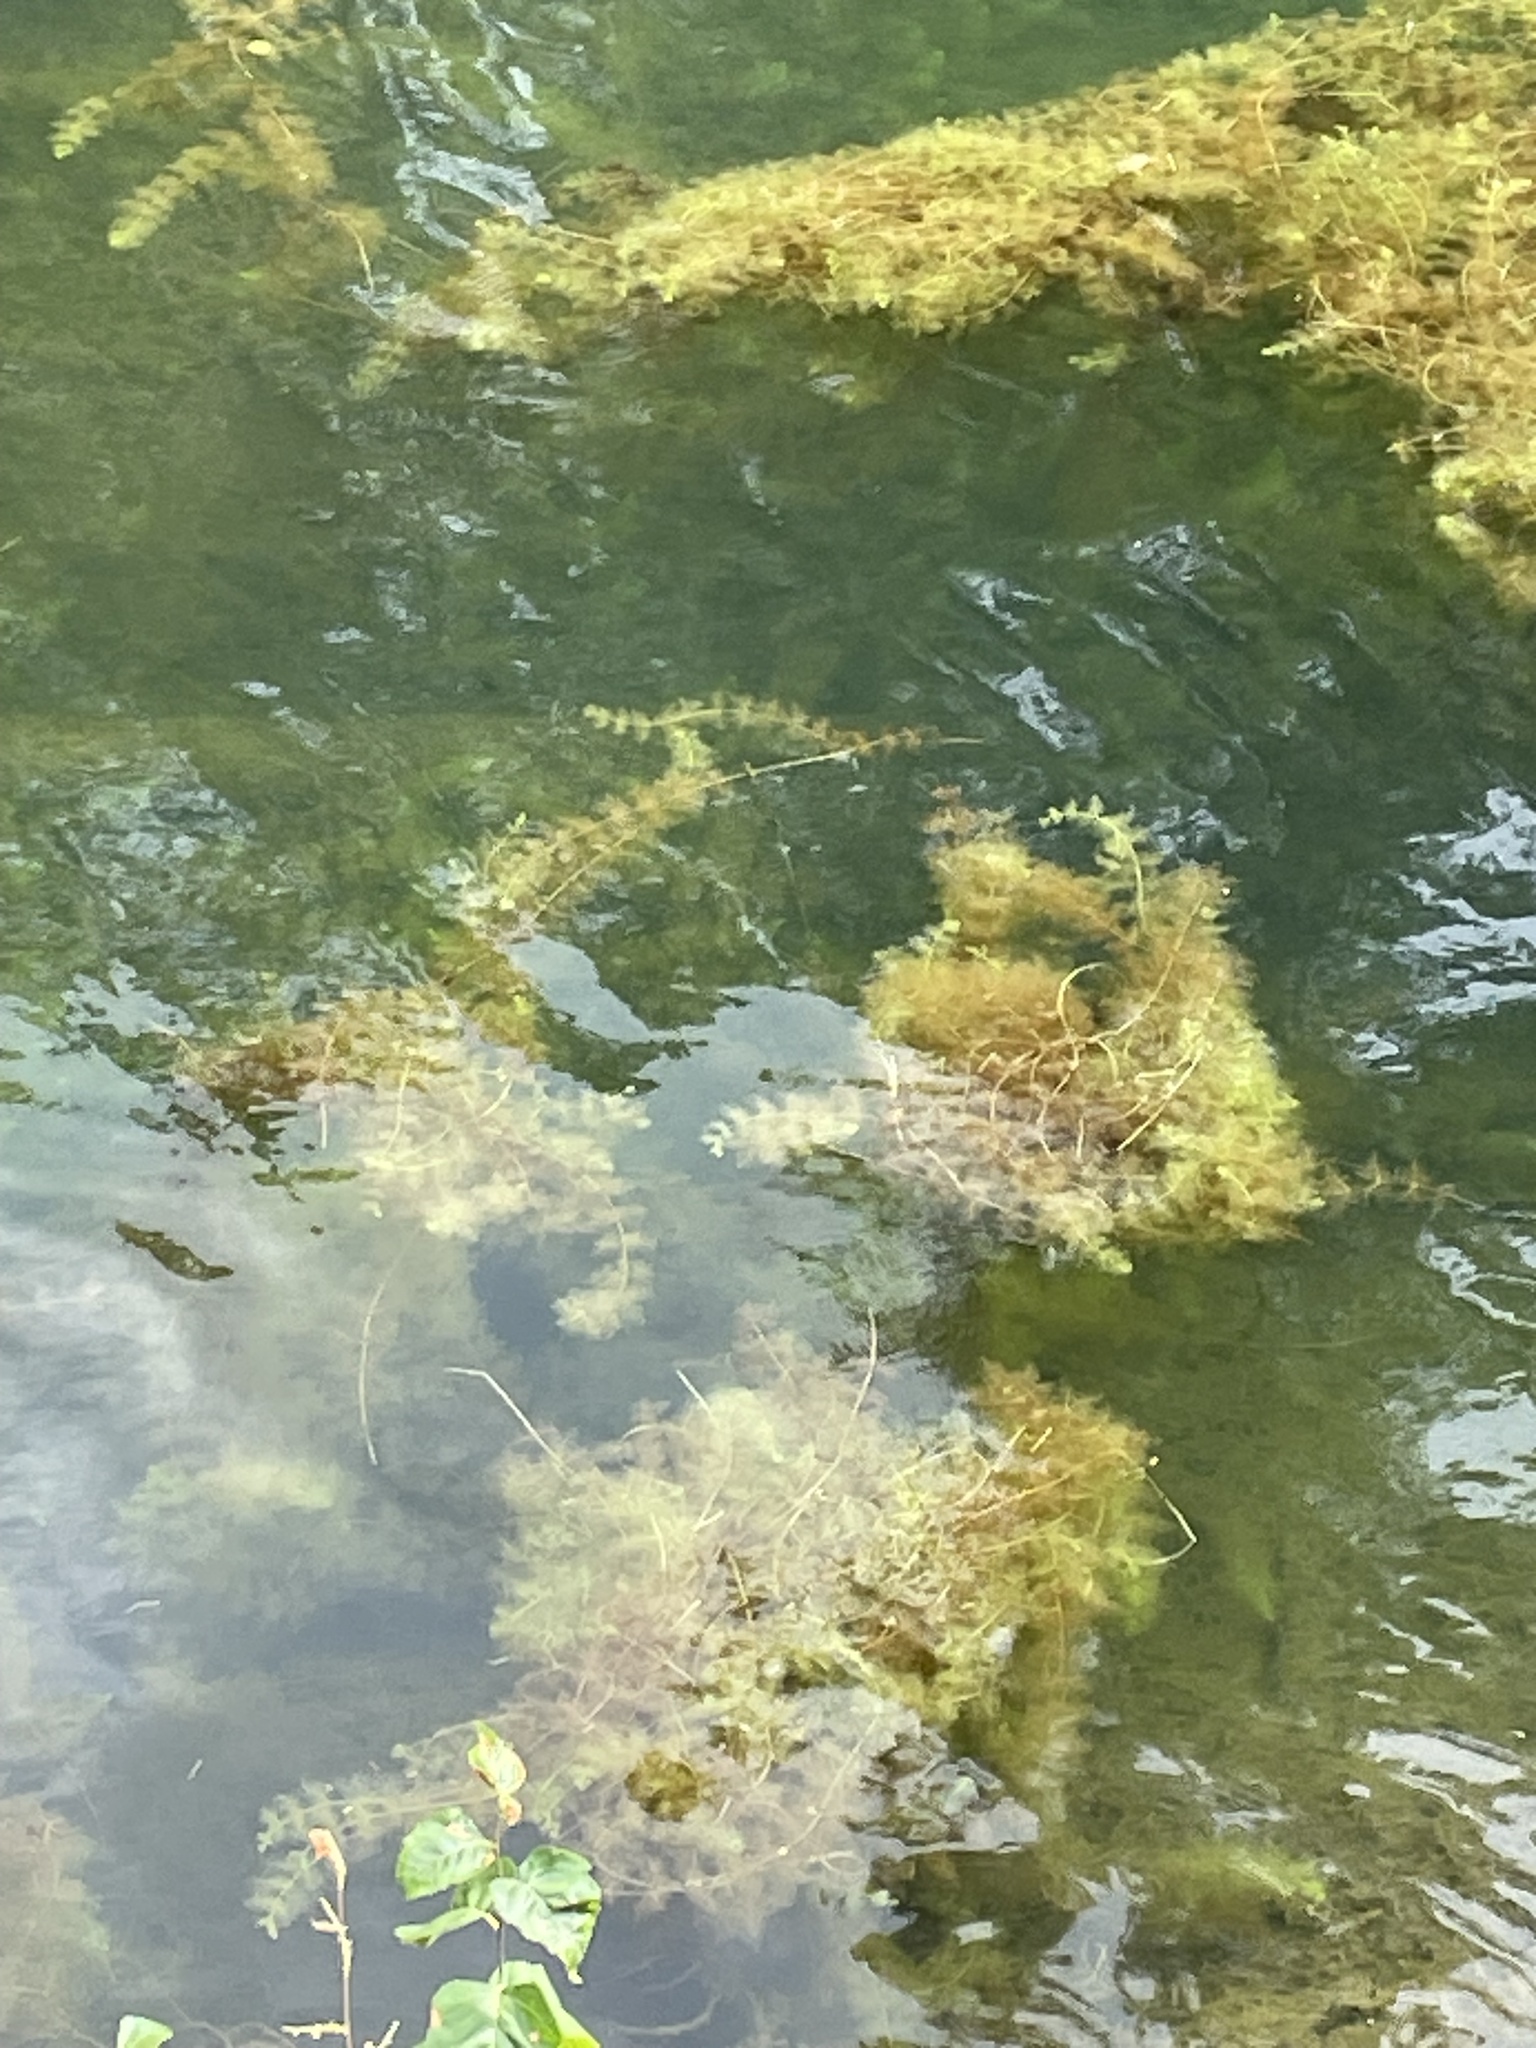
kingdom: Plantae
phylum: Tracheophyta
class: Magnoliopsida
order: Lamiales
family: Lentibulariaceae
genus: Utricularia
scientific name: Utricularia purpurea
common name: Eastern purple bladderwort
